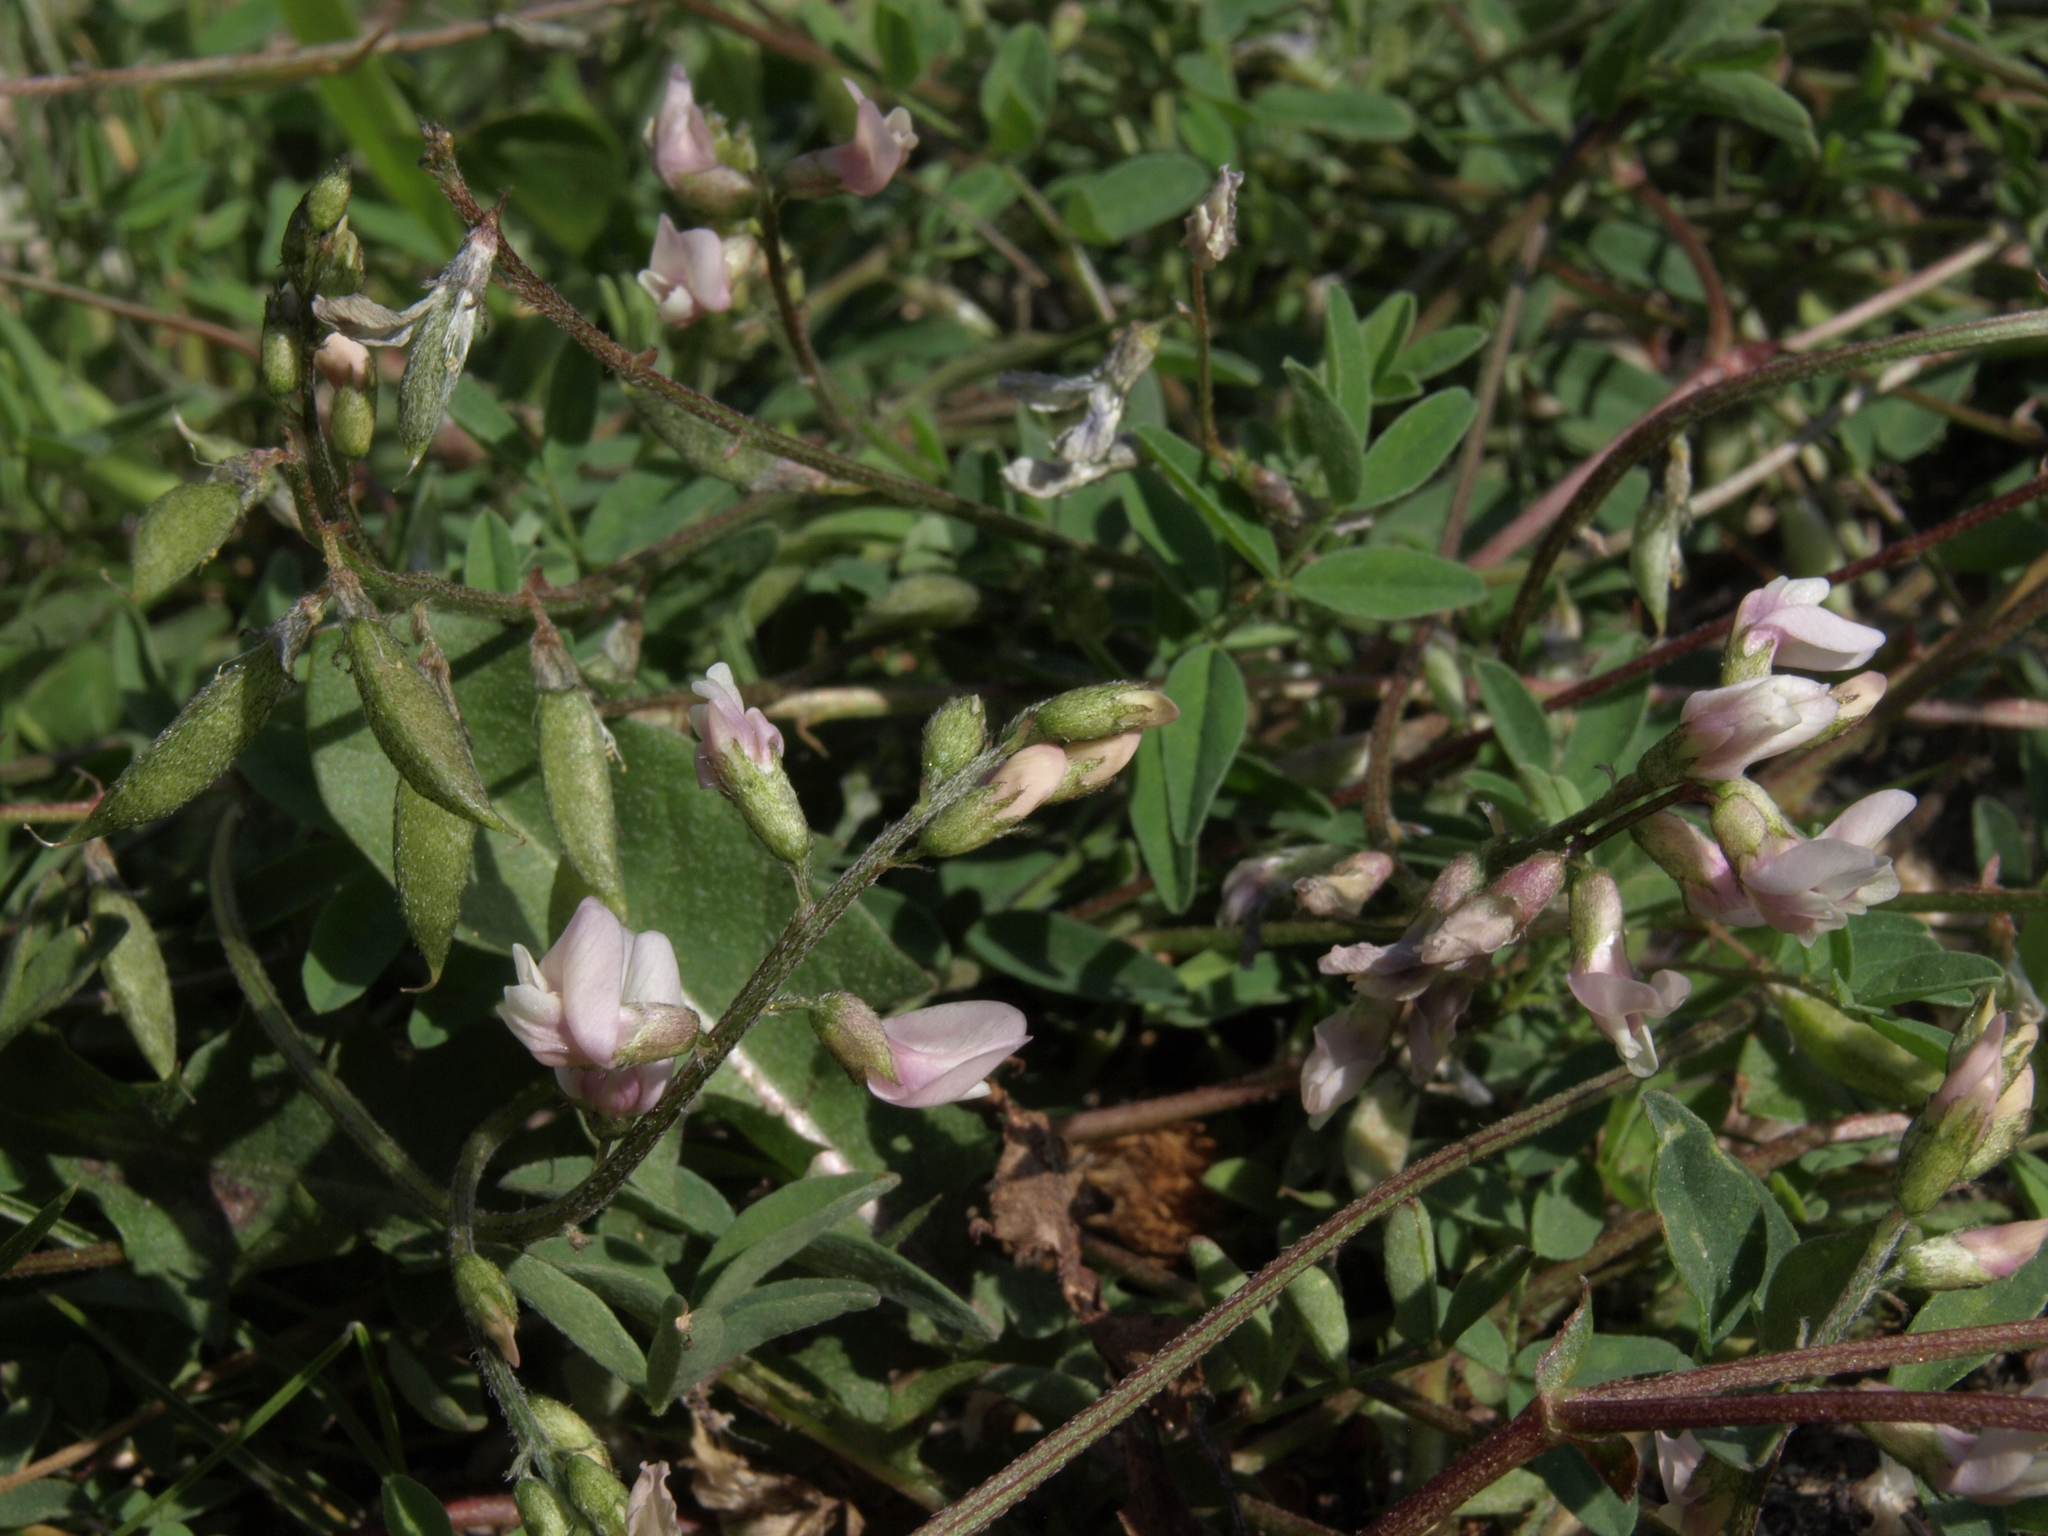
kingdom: Plantae
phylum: Tracheophyta
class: Magnoliopsida
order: Fabales
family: Fabaceae
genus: Astragalus
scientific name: Astragalus robbinsii
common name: Robbins' milk-vetch
